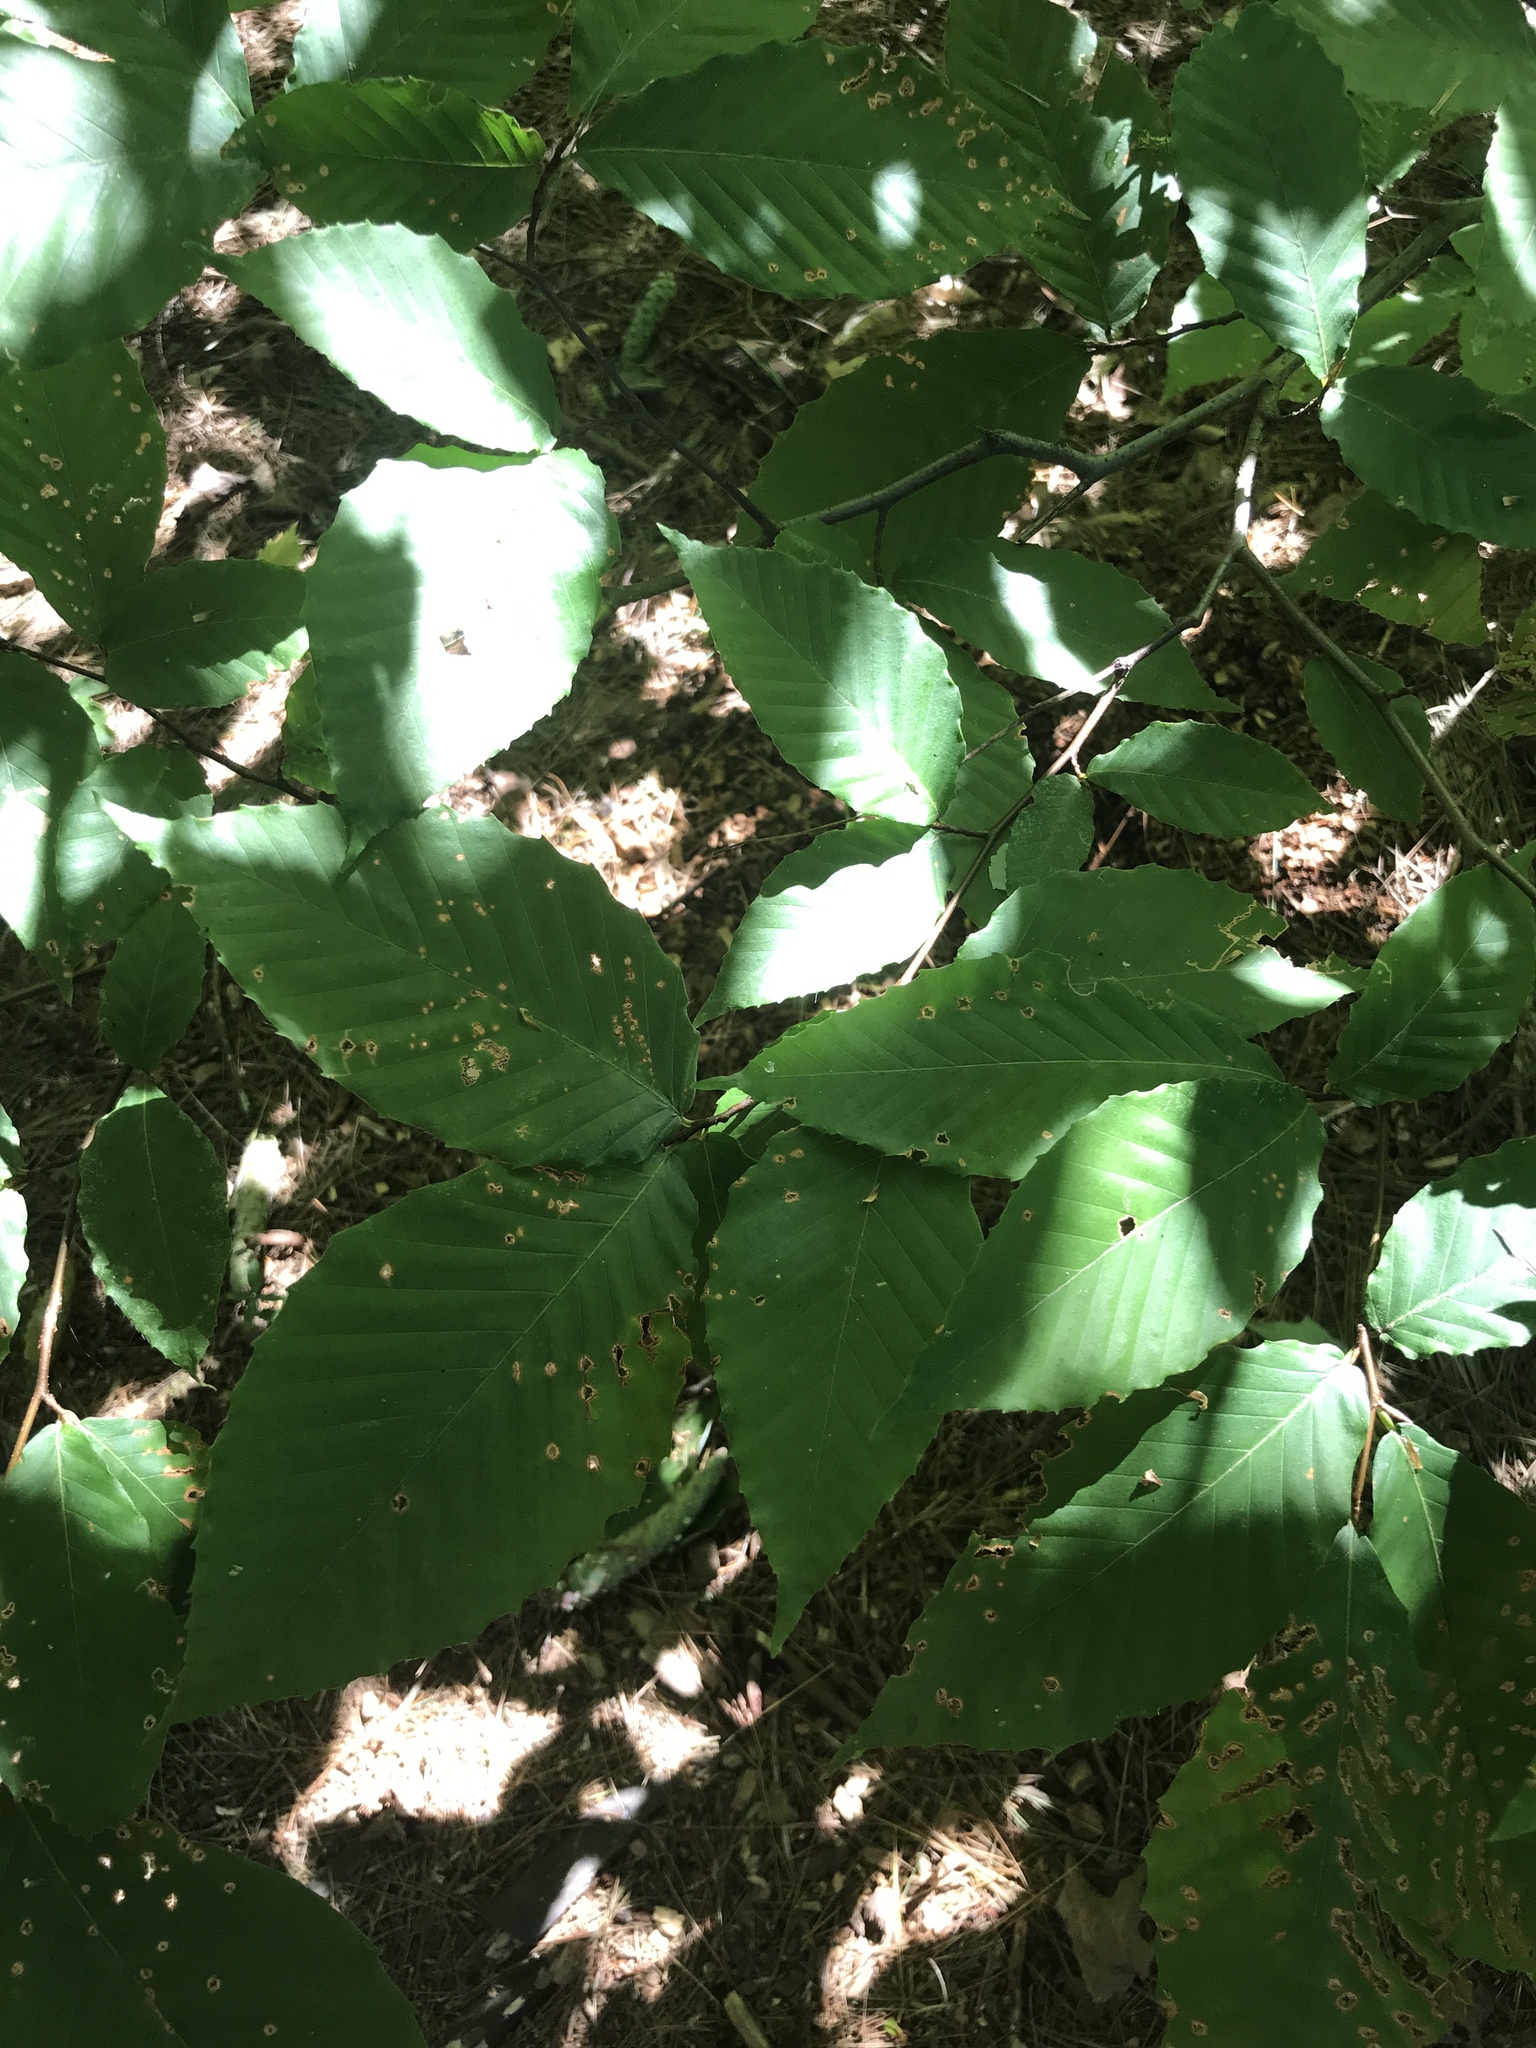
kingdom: Plantae
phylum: Tracheophyta
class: Magnoliopsida
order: Fagales
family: Fagaceae
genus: Fagus
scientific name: Fagus grandifolia
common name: American beech
